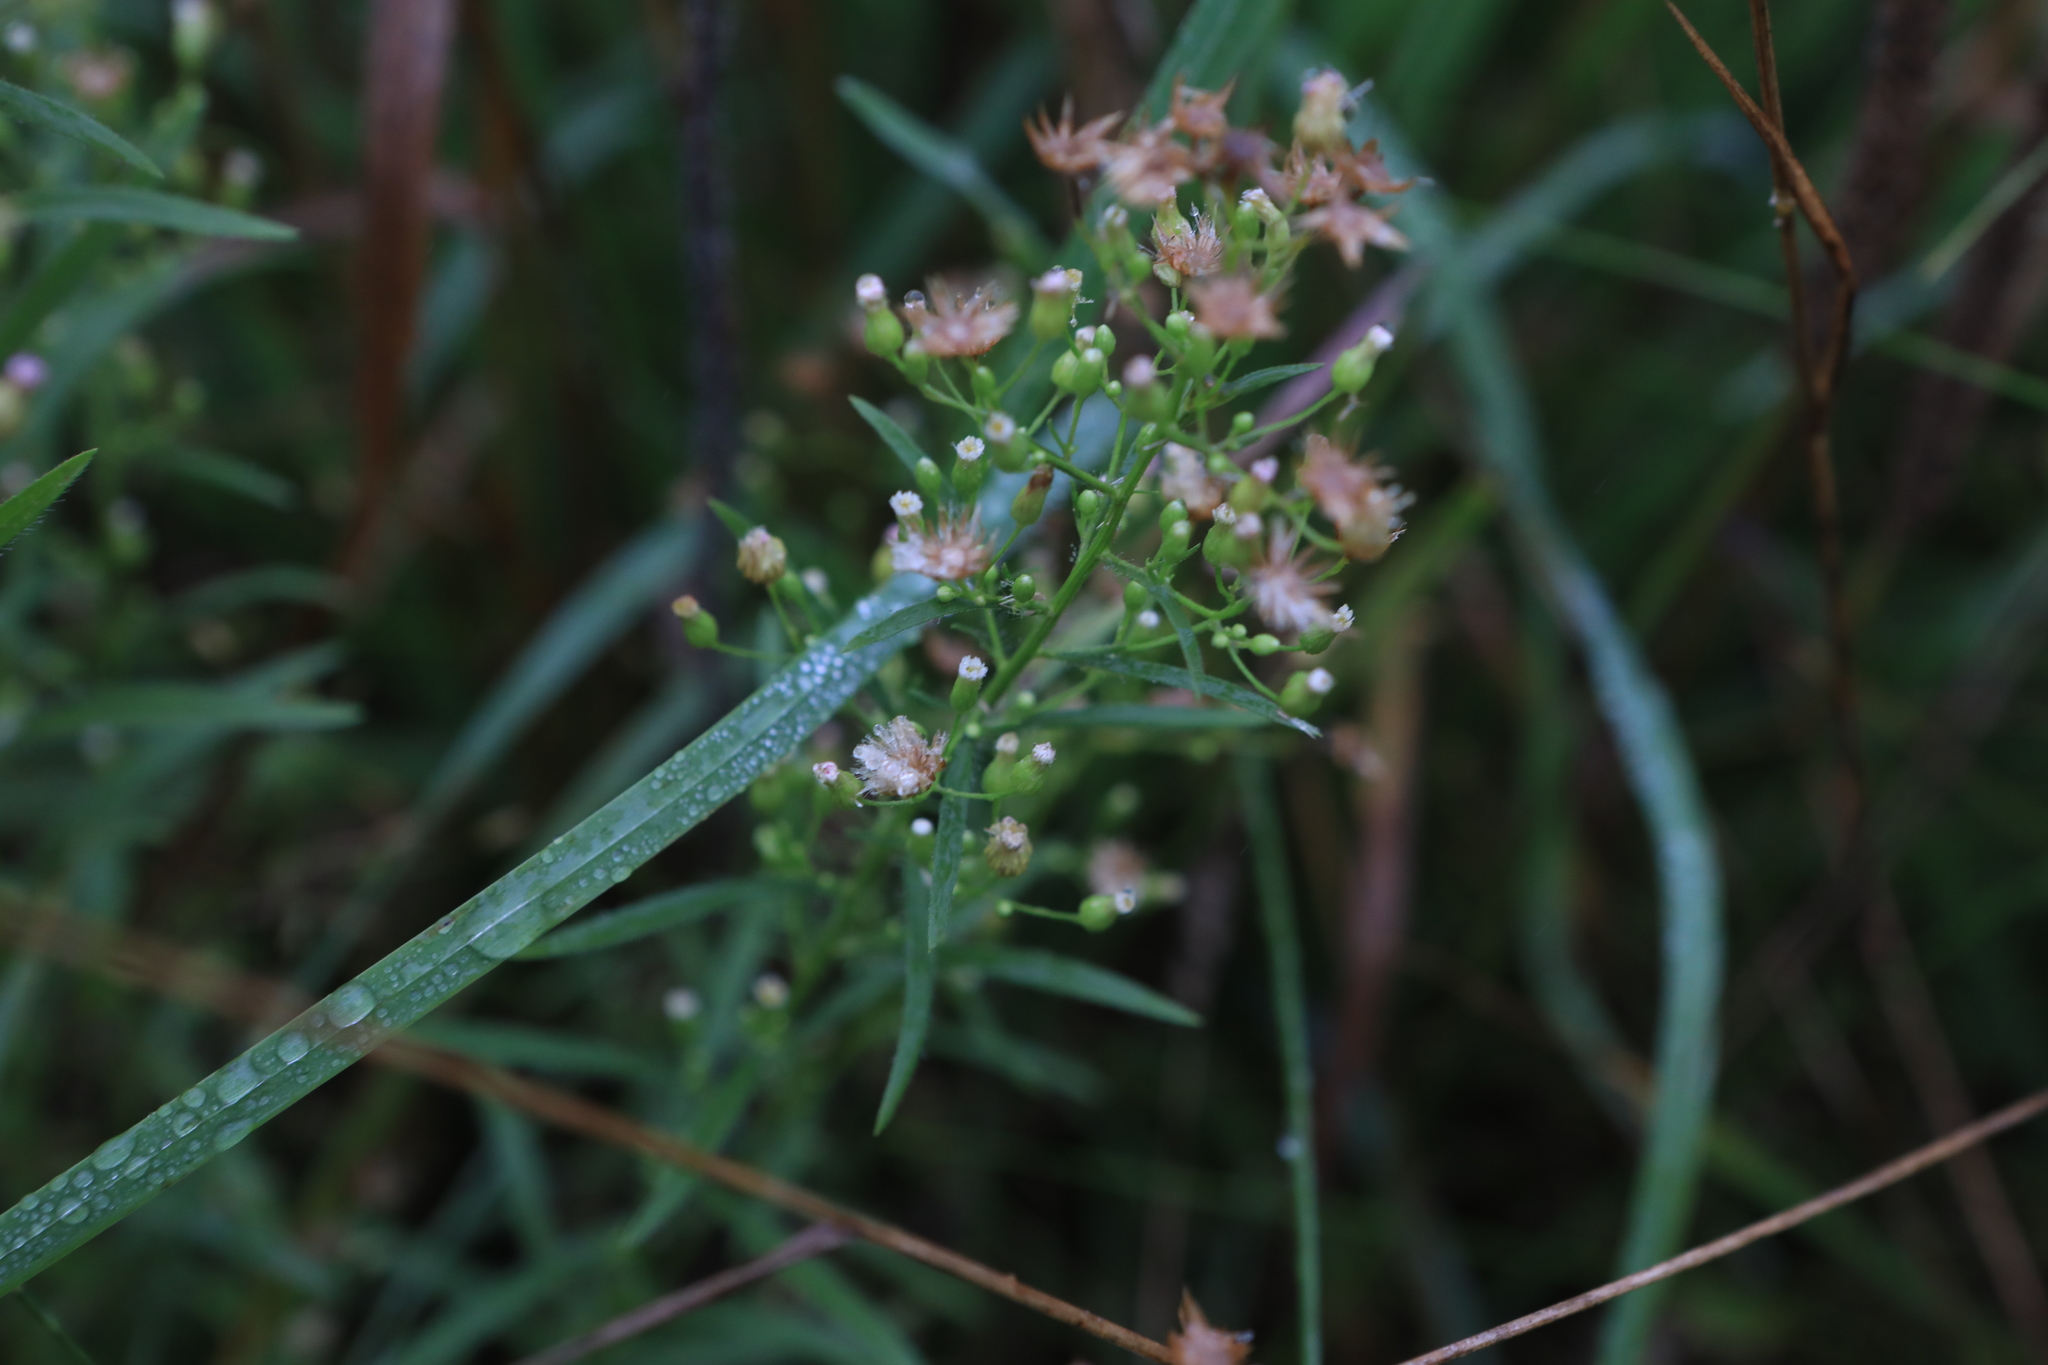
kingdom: Plantae
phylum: Tracheophyta
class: Magnoliopsida
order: Asterales
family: Asteraceae
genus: Erigeron
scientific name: Erigeron canadensis
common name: Canadian fleabane
